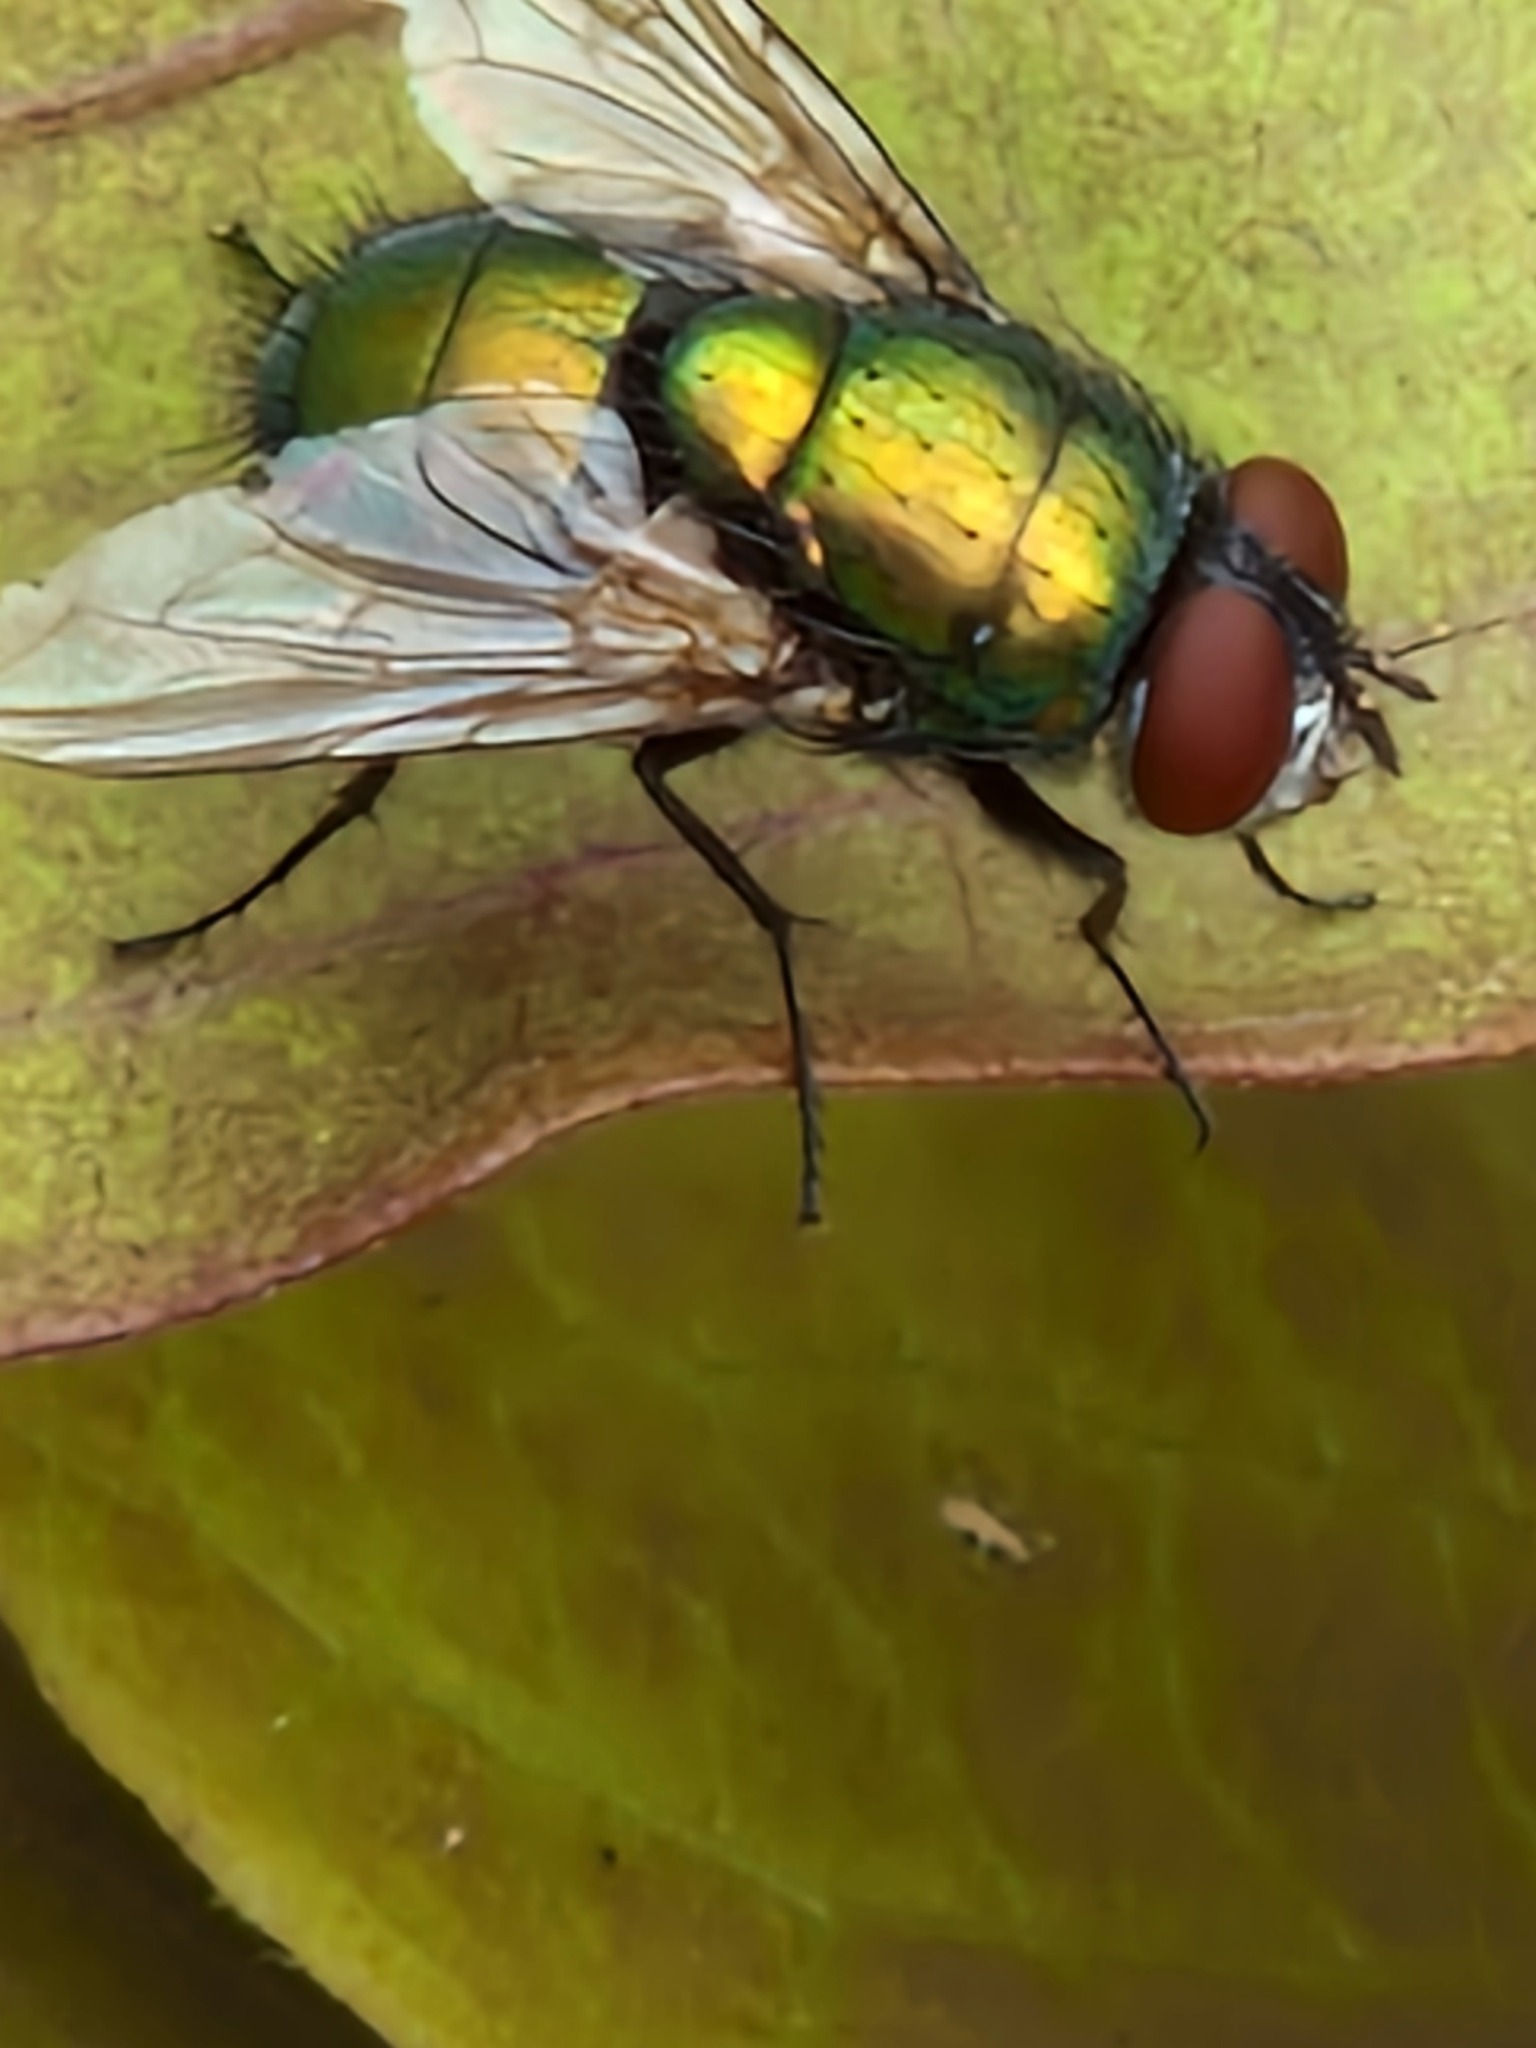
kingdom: Animalia
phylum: Arthropoda
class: Insecta
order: Diptera
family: Calliphoridae
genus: Lucilia
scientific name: Lucilia
